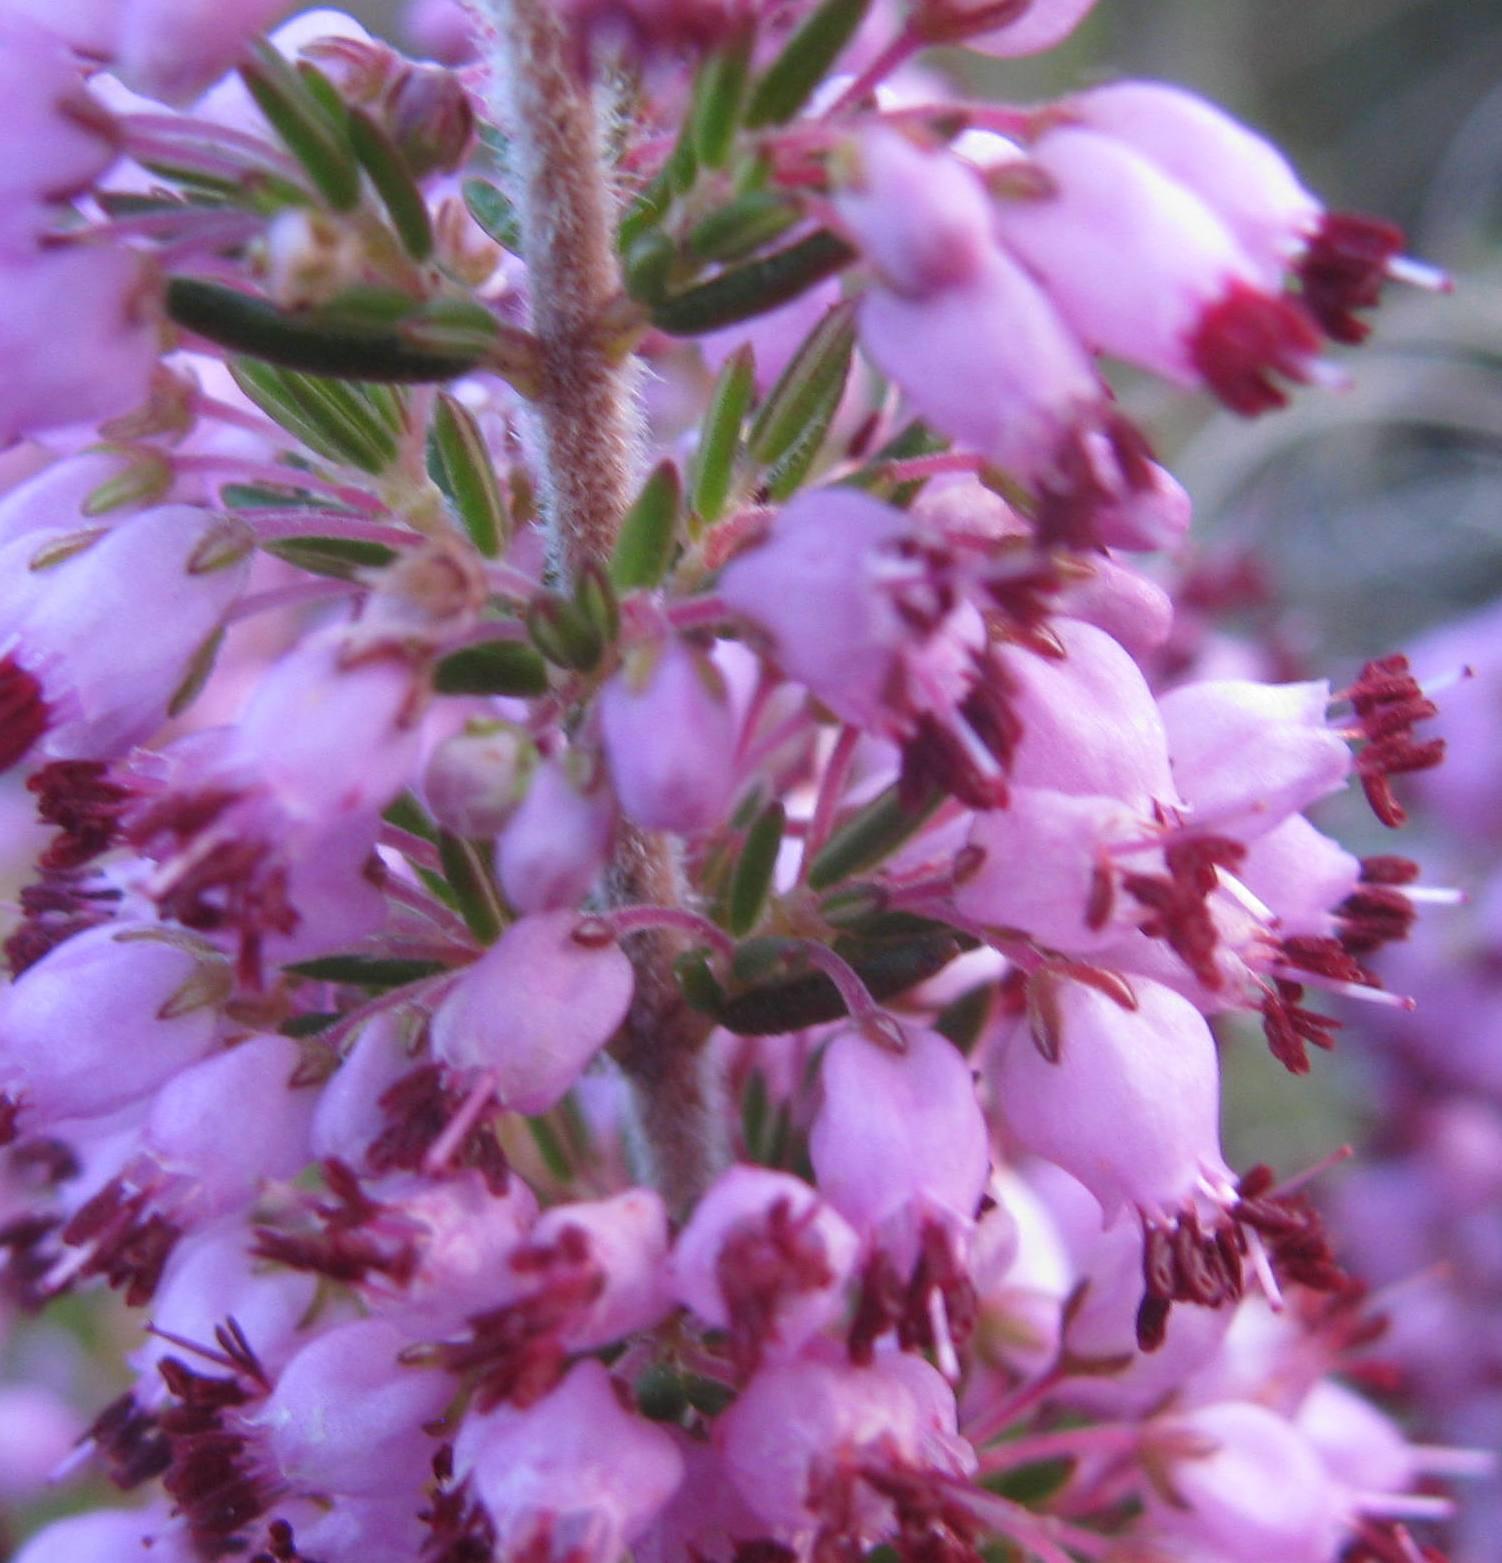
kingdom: Plantae
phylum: Tracheophyta
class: Magnoliopsida
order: Ericales
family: Ericaceae
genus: Erica
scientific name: Erica nudiflora
